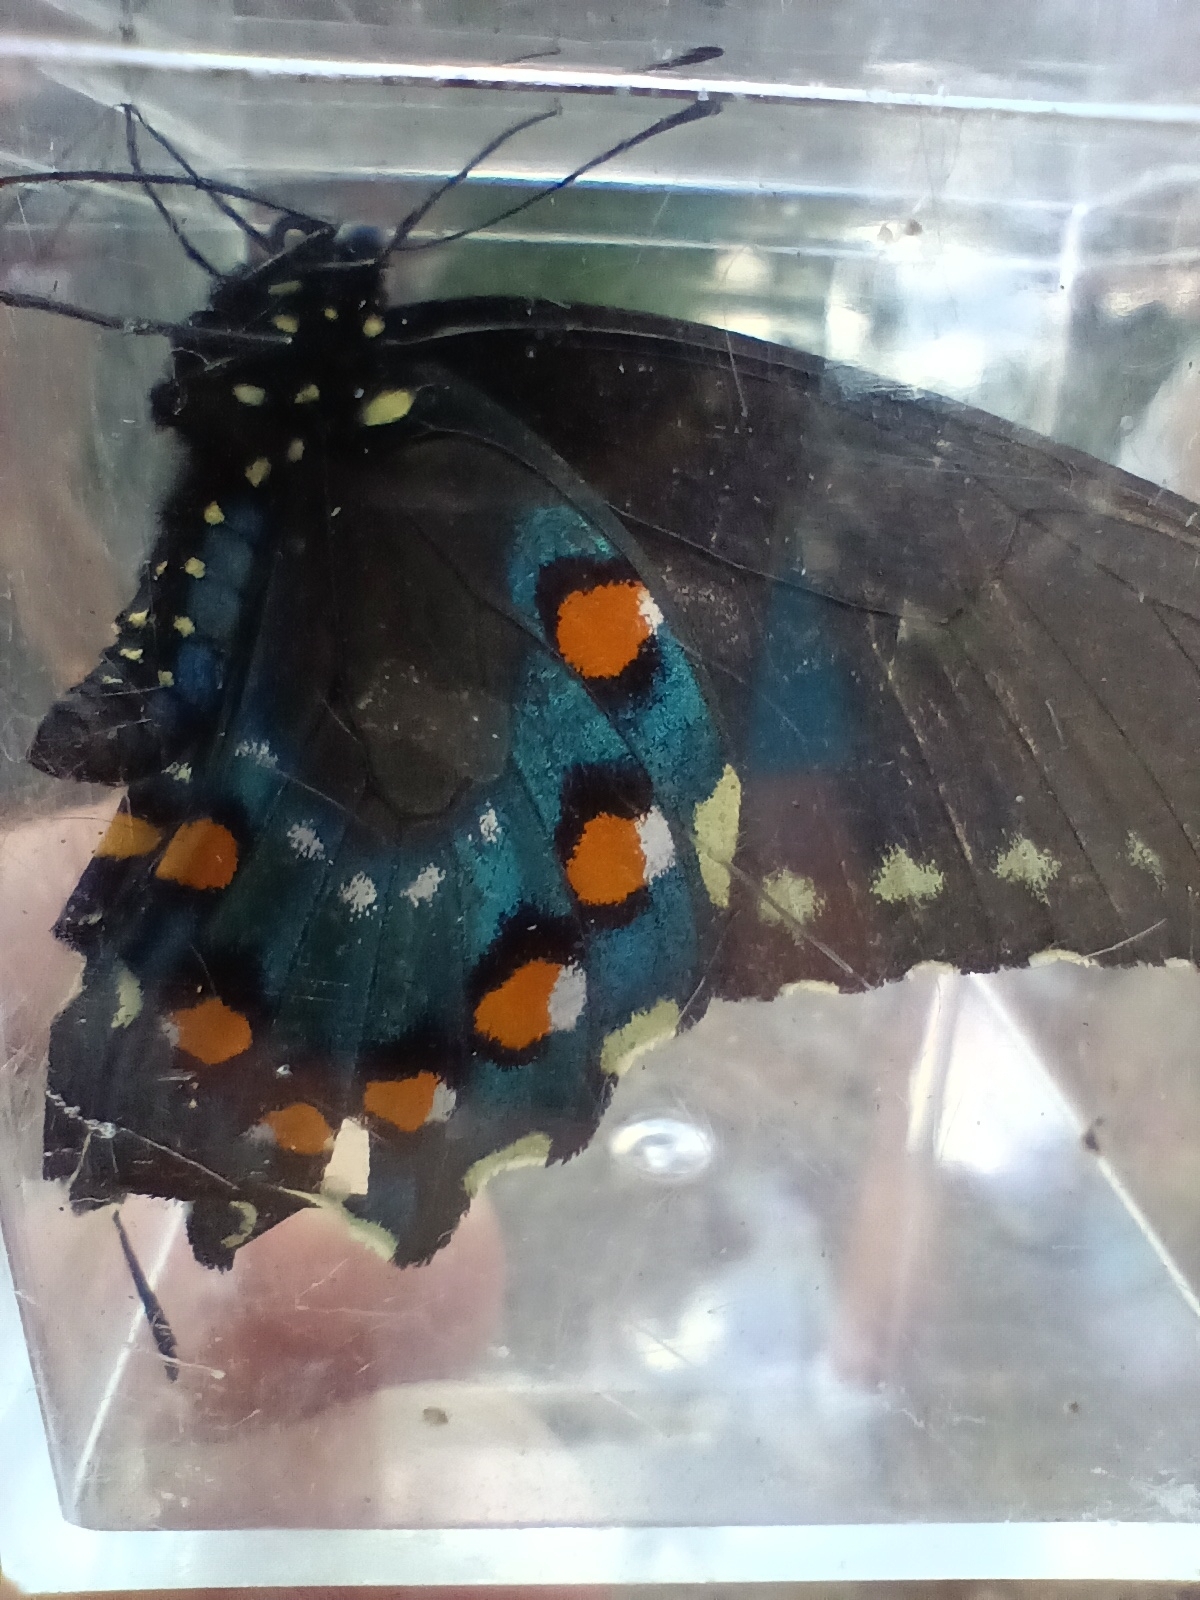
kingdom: Animalia
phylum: Arthropoda
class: Insecta
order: Lepidoptera
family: Papilionidae
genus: Battus
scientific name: Battus philenor
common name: Pipevine swallowtail
